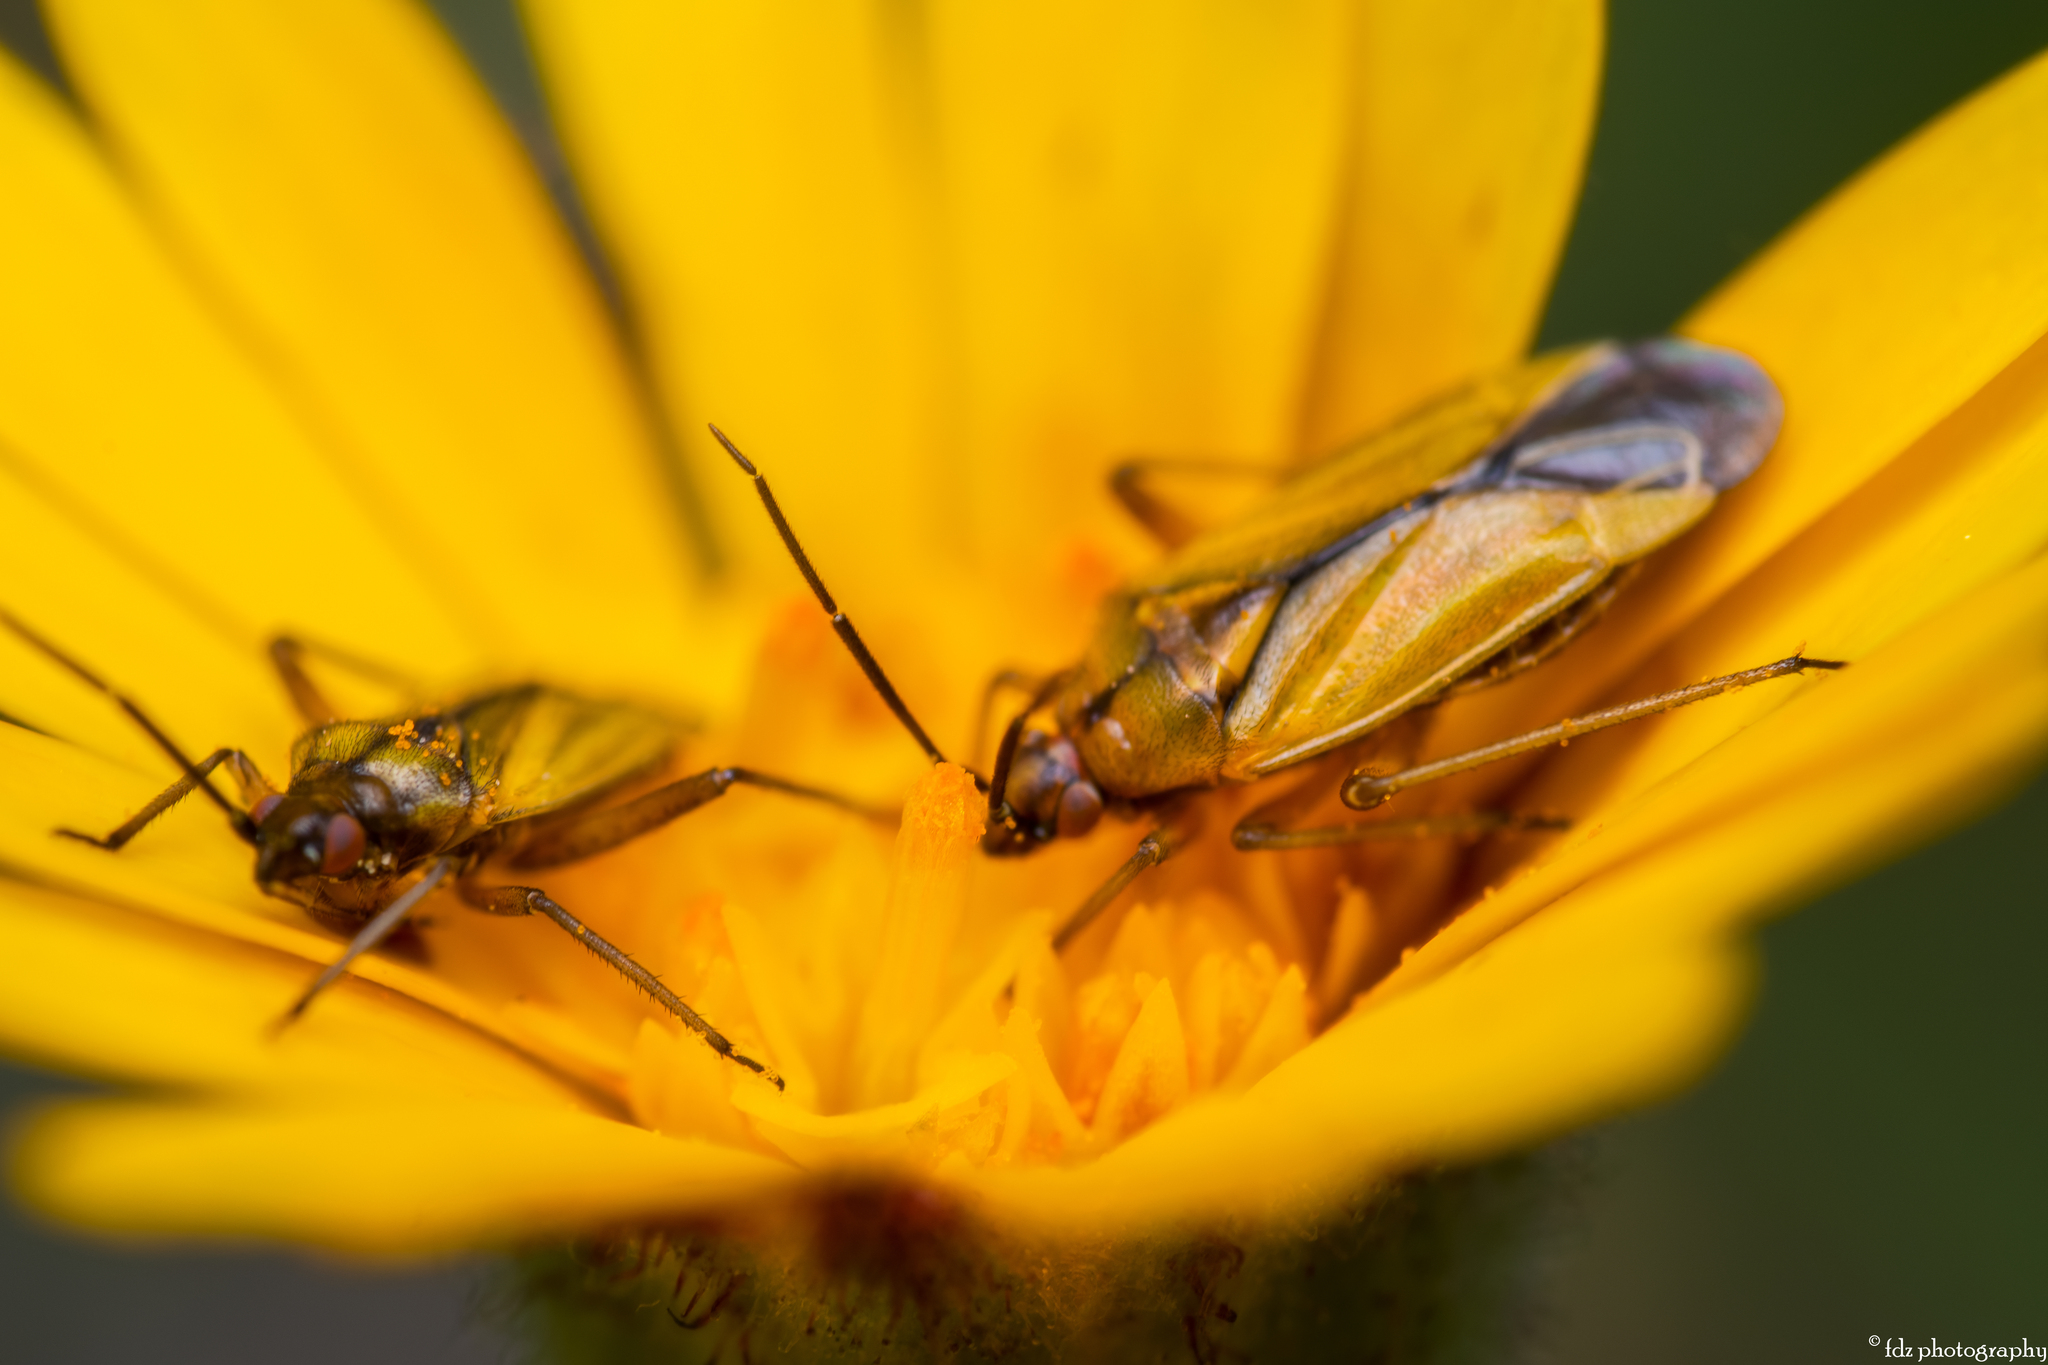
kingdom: Animalia
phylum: Arthropoda
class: Insecta
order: Hemiptera
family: Miridae
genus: Macrotylus
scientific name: Macrotylus nigricornis
